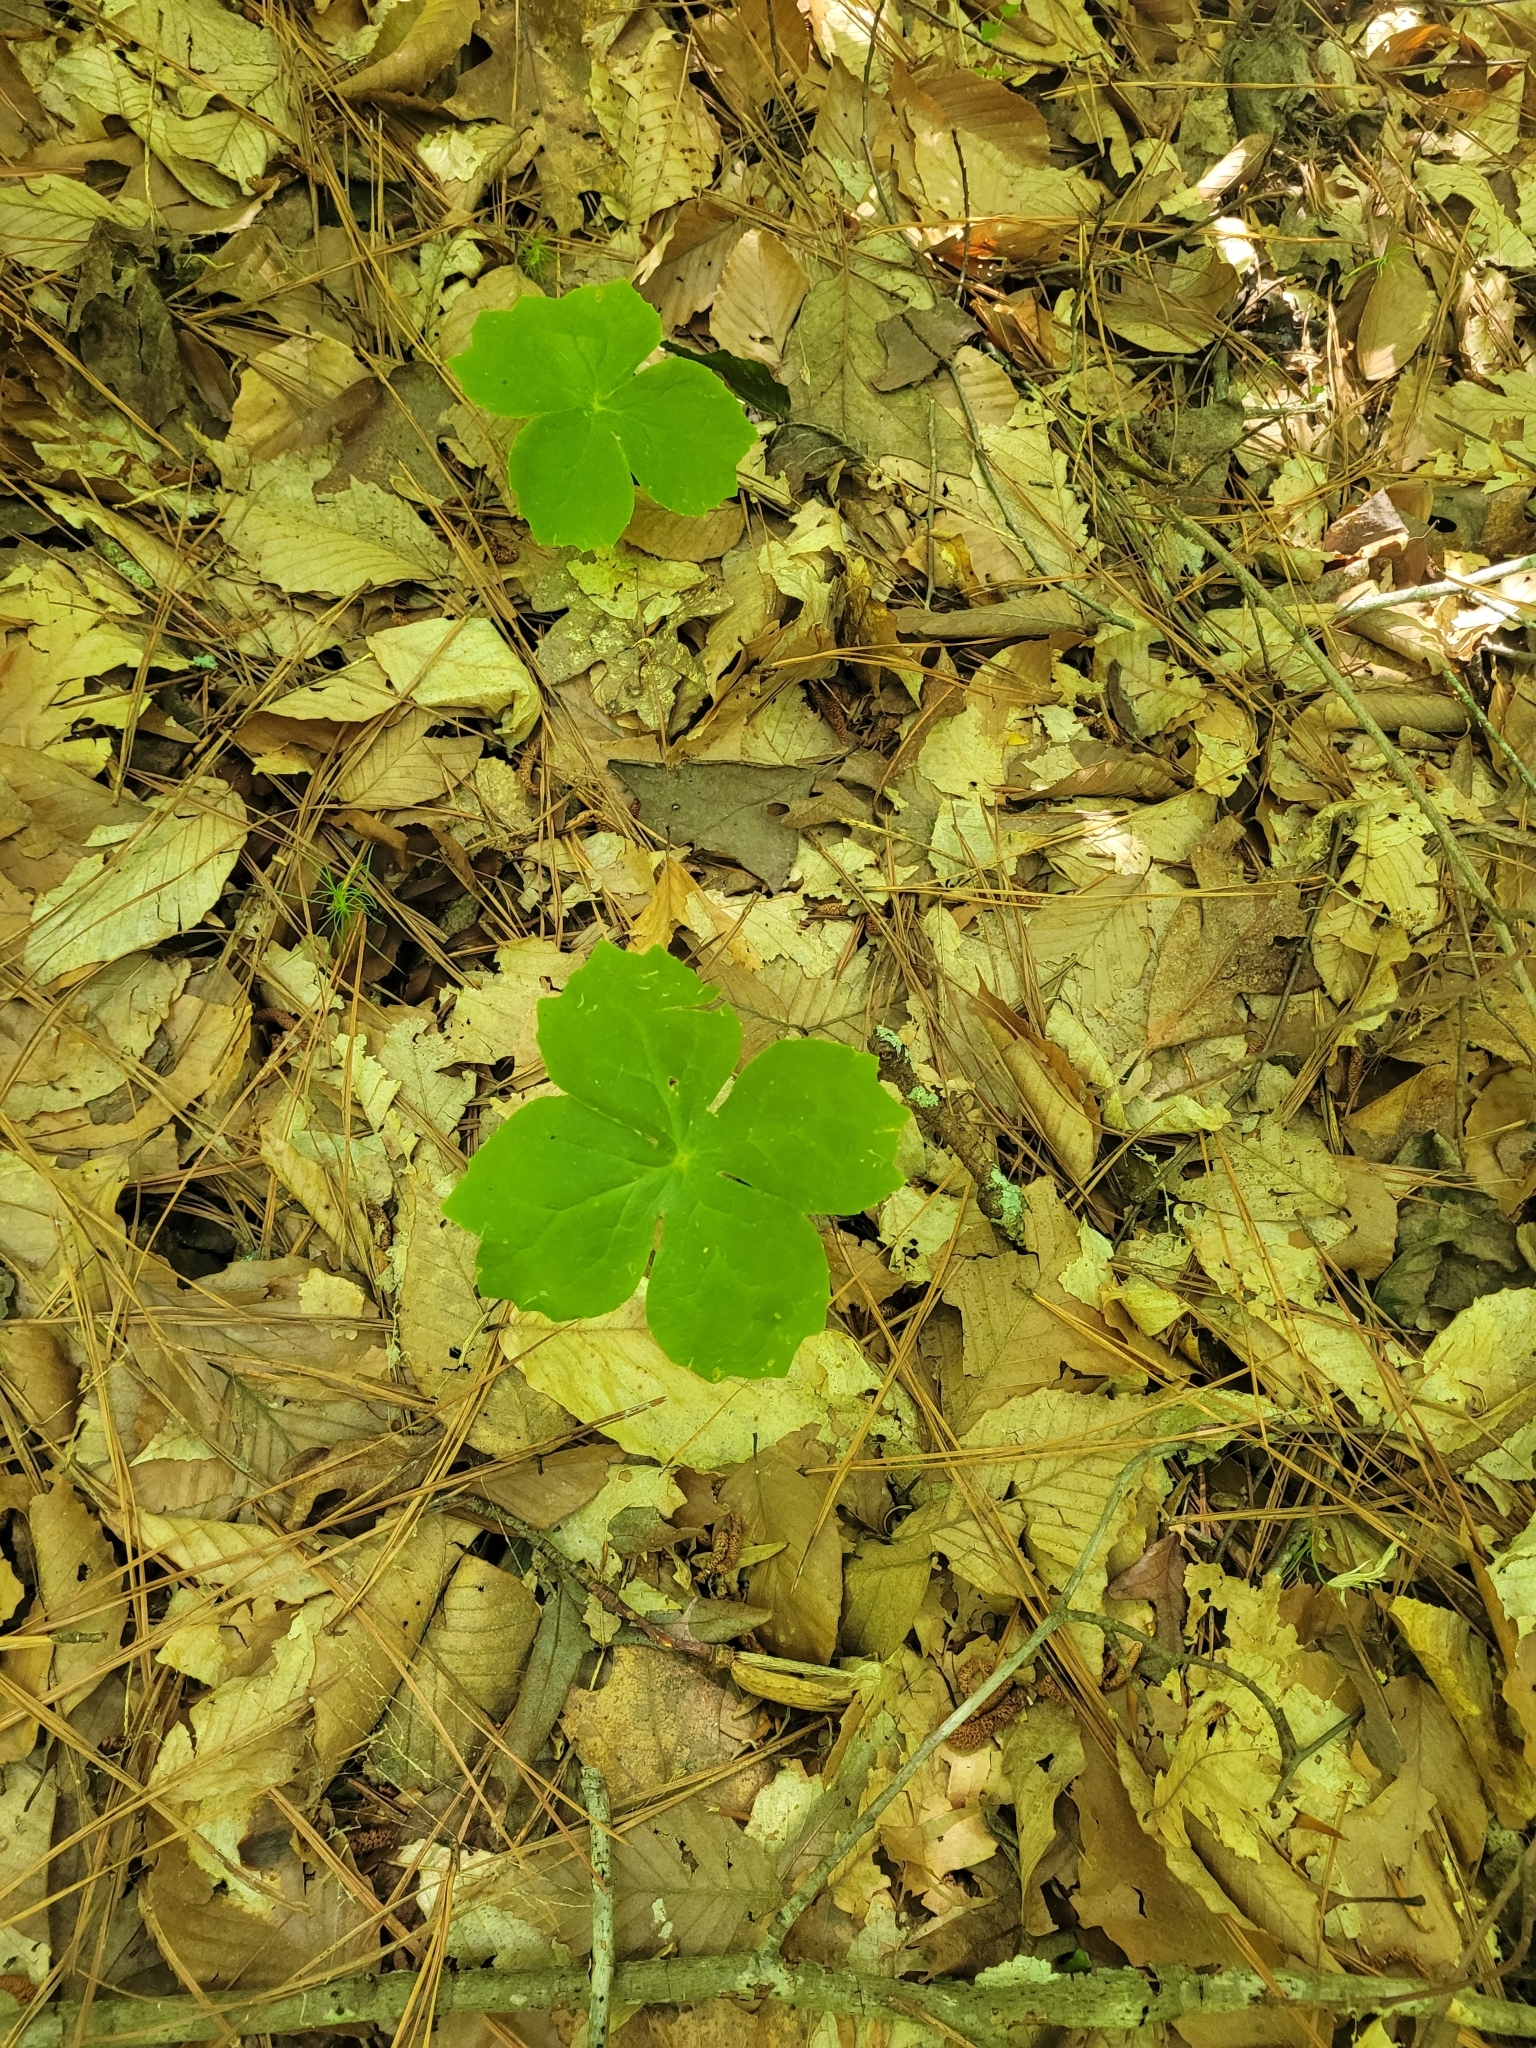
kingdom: Plantae
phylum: Tracheophyta
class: Magnoliopsida
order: Ranunculales
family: Berberidaceae
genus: Podophyllum
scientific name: Podophyllum peltatum
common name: Wild mandrake
